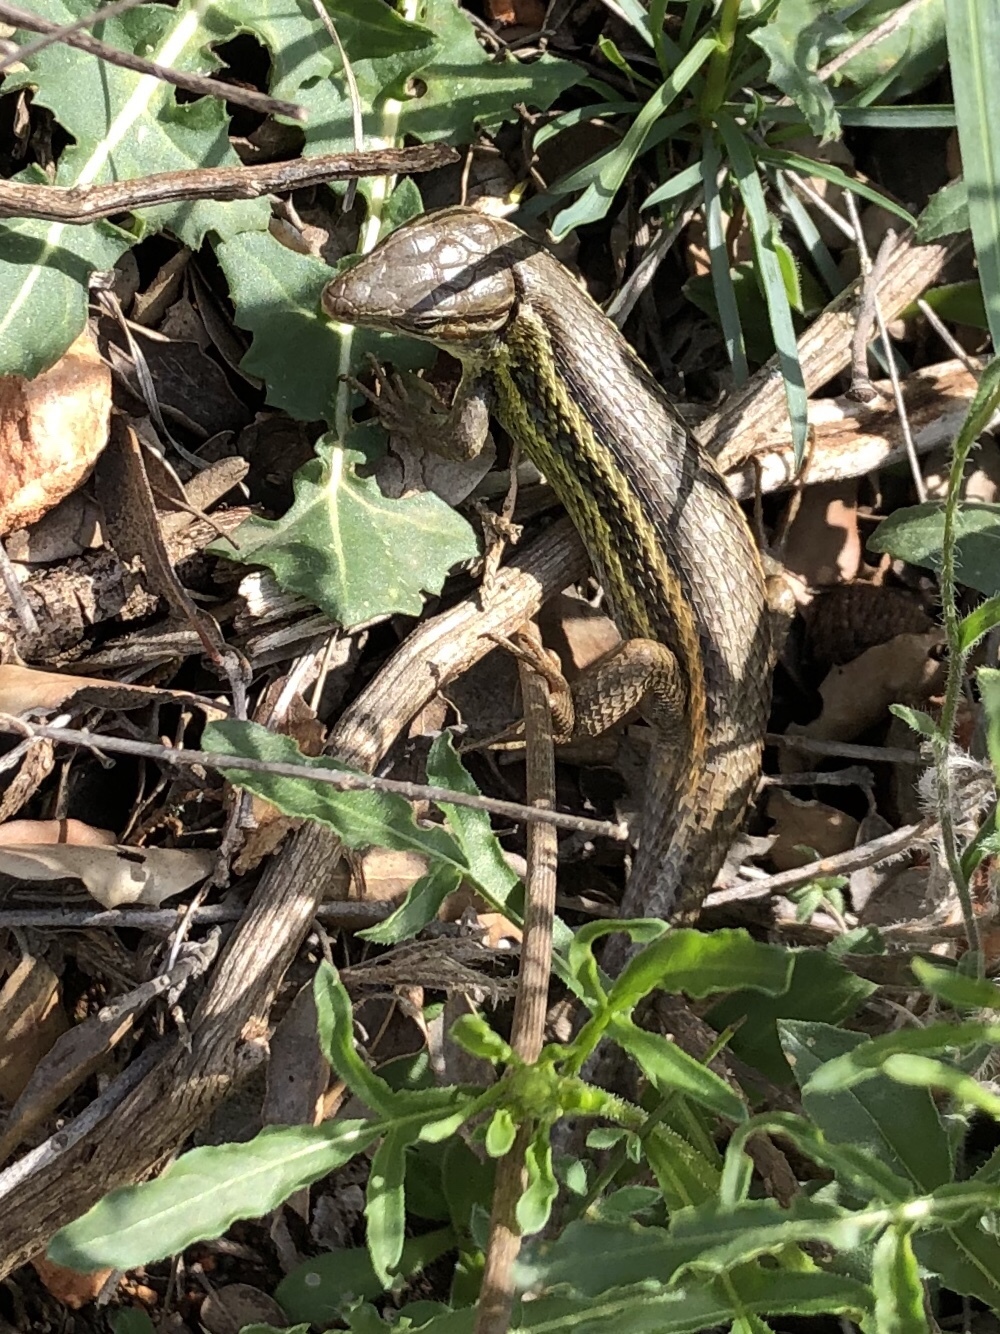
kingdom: Animalia
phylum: Chordata
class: Squamata
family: Lacertidae
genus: Psammodromus
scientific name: Psammodromus algirus
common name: Algerian psammodromus
